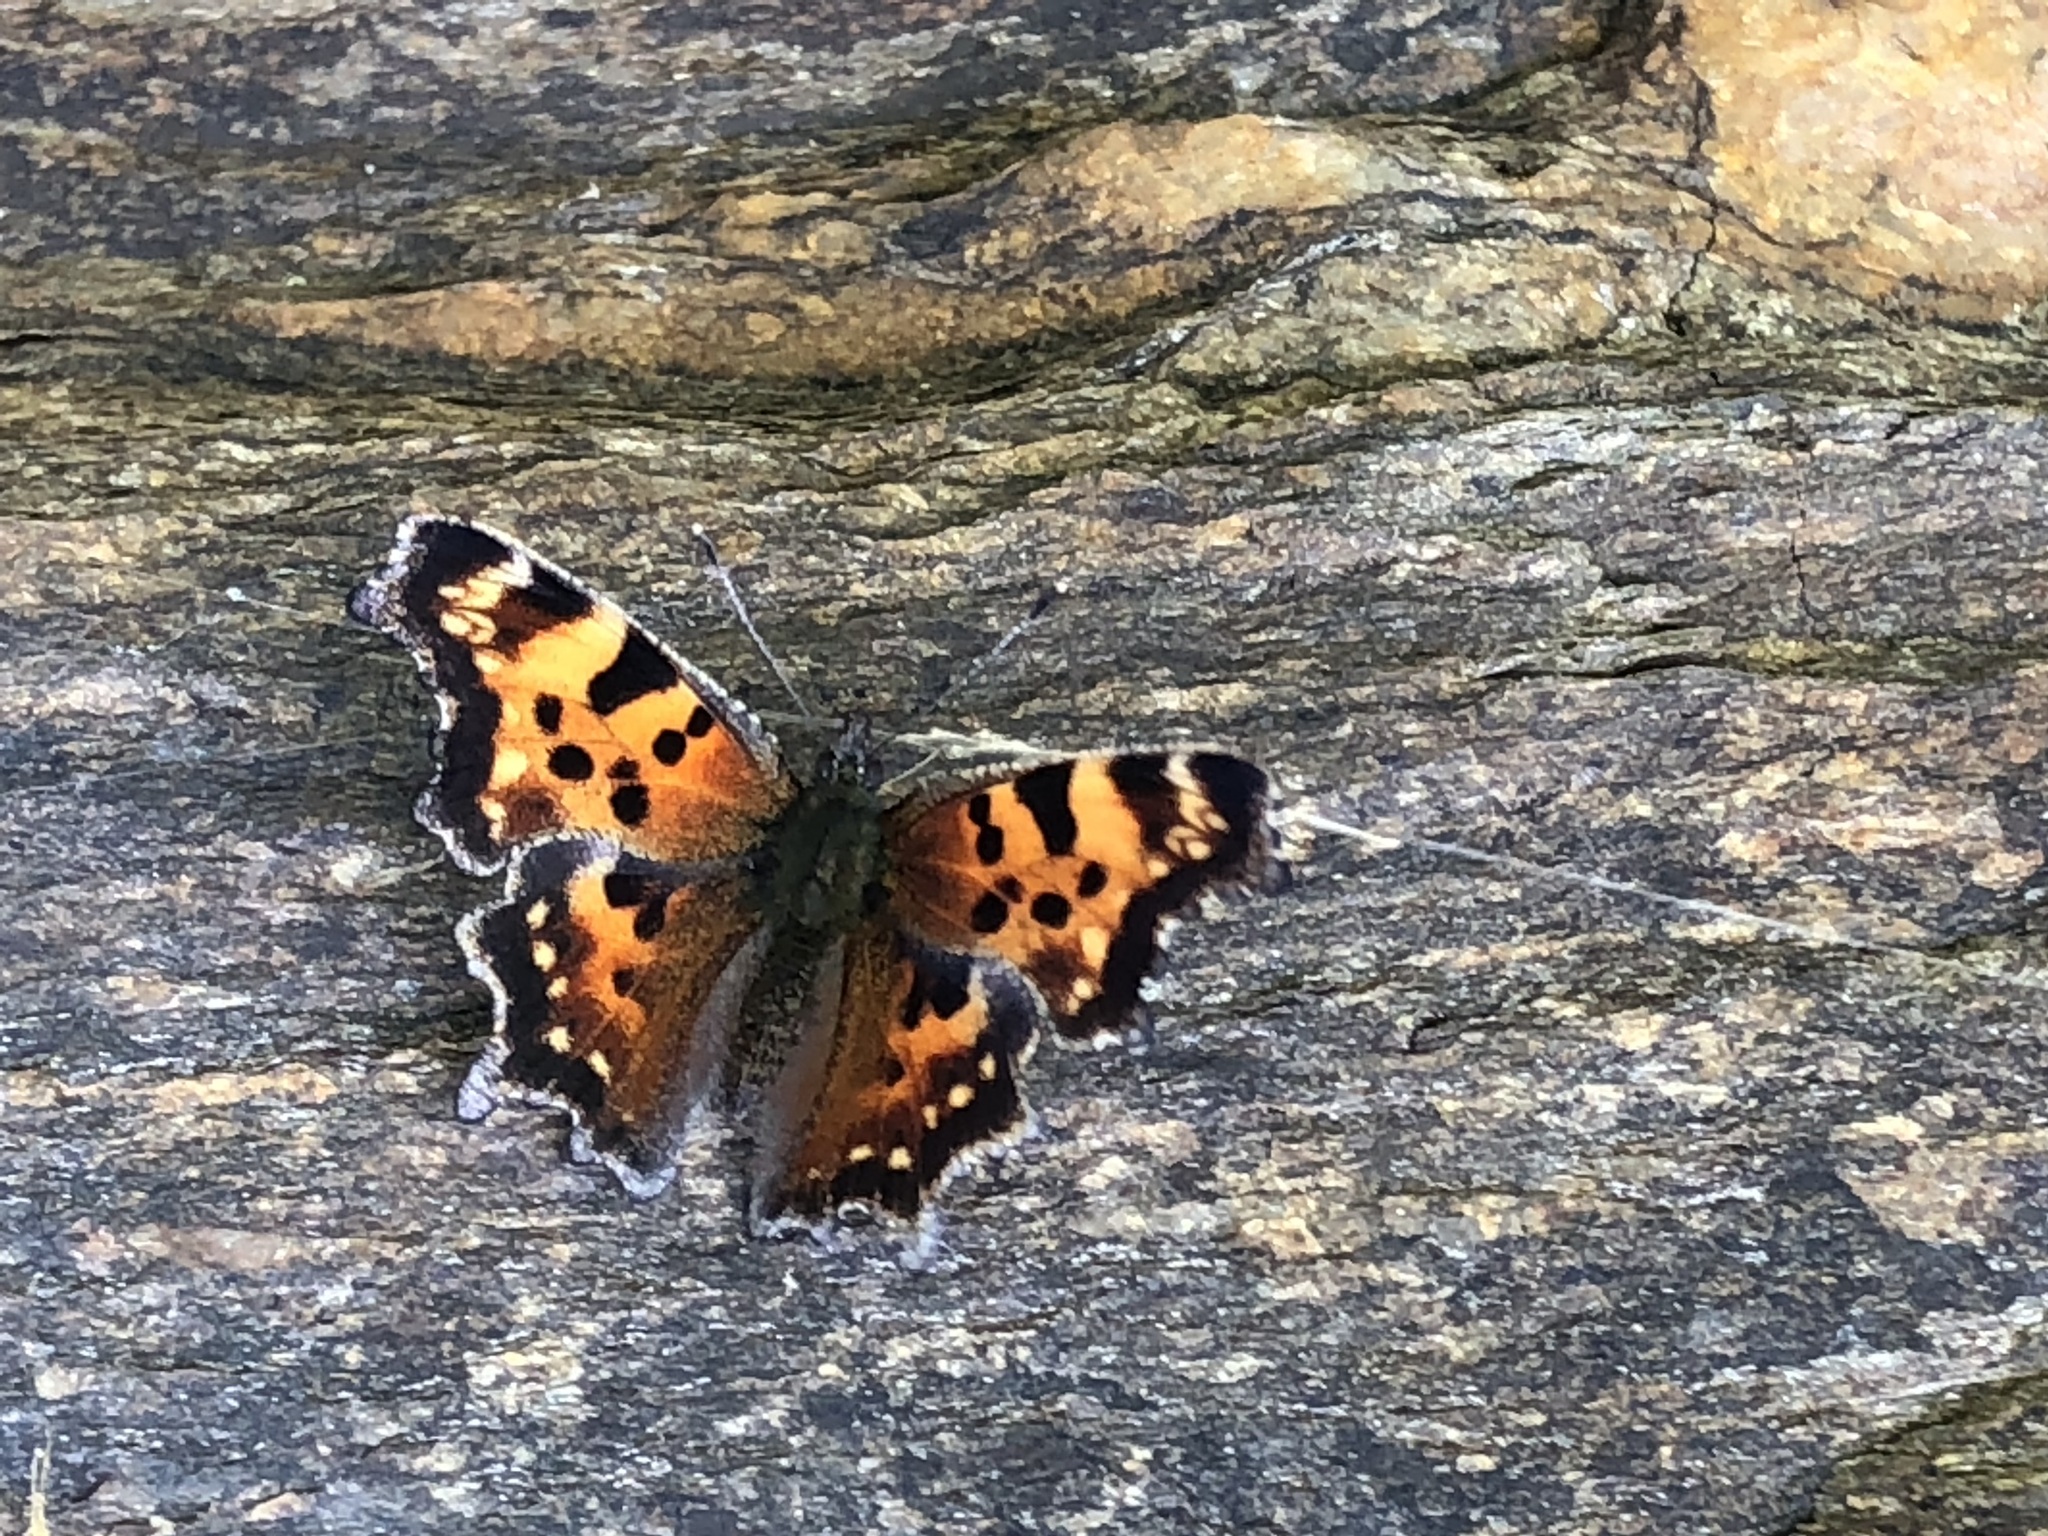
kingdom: Animalia
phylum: Arthropoda
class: Insecta
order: Lepidoptera
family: Nymphalidae
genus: Polygonia
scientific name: Polygonia faunus
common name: Green comma
